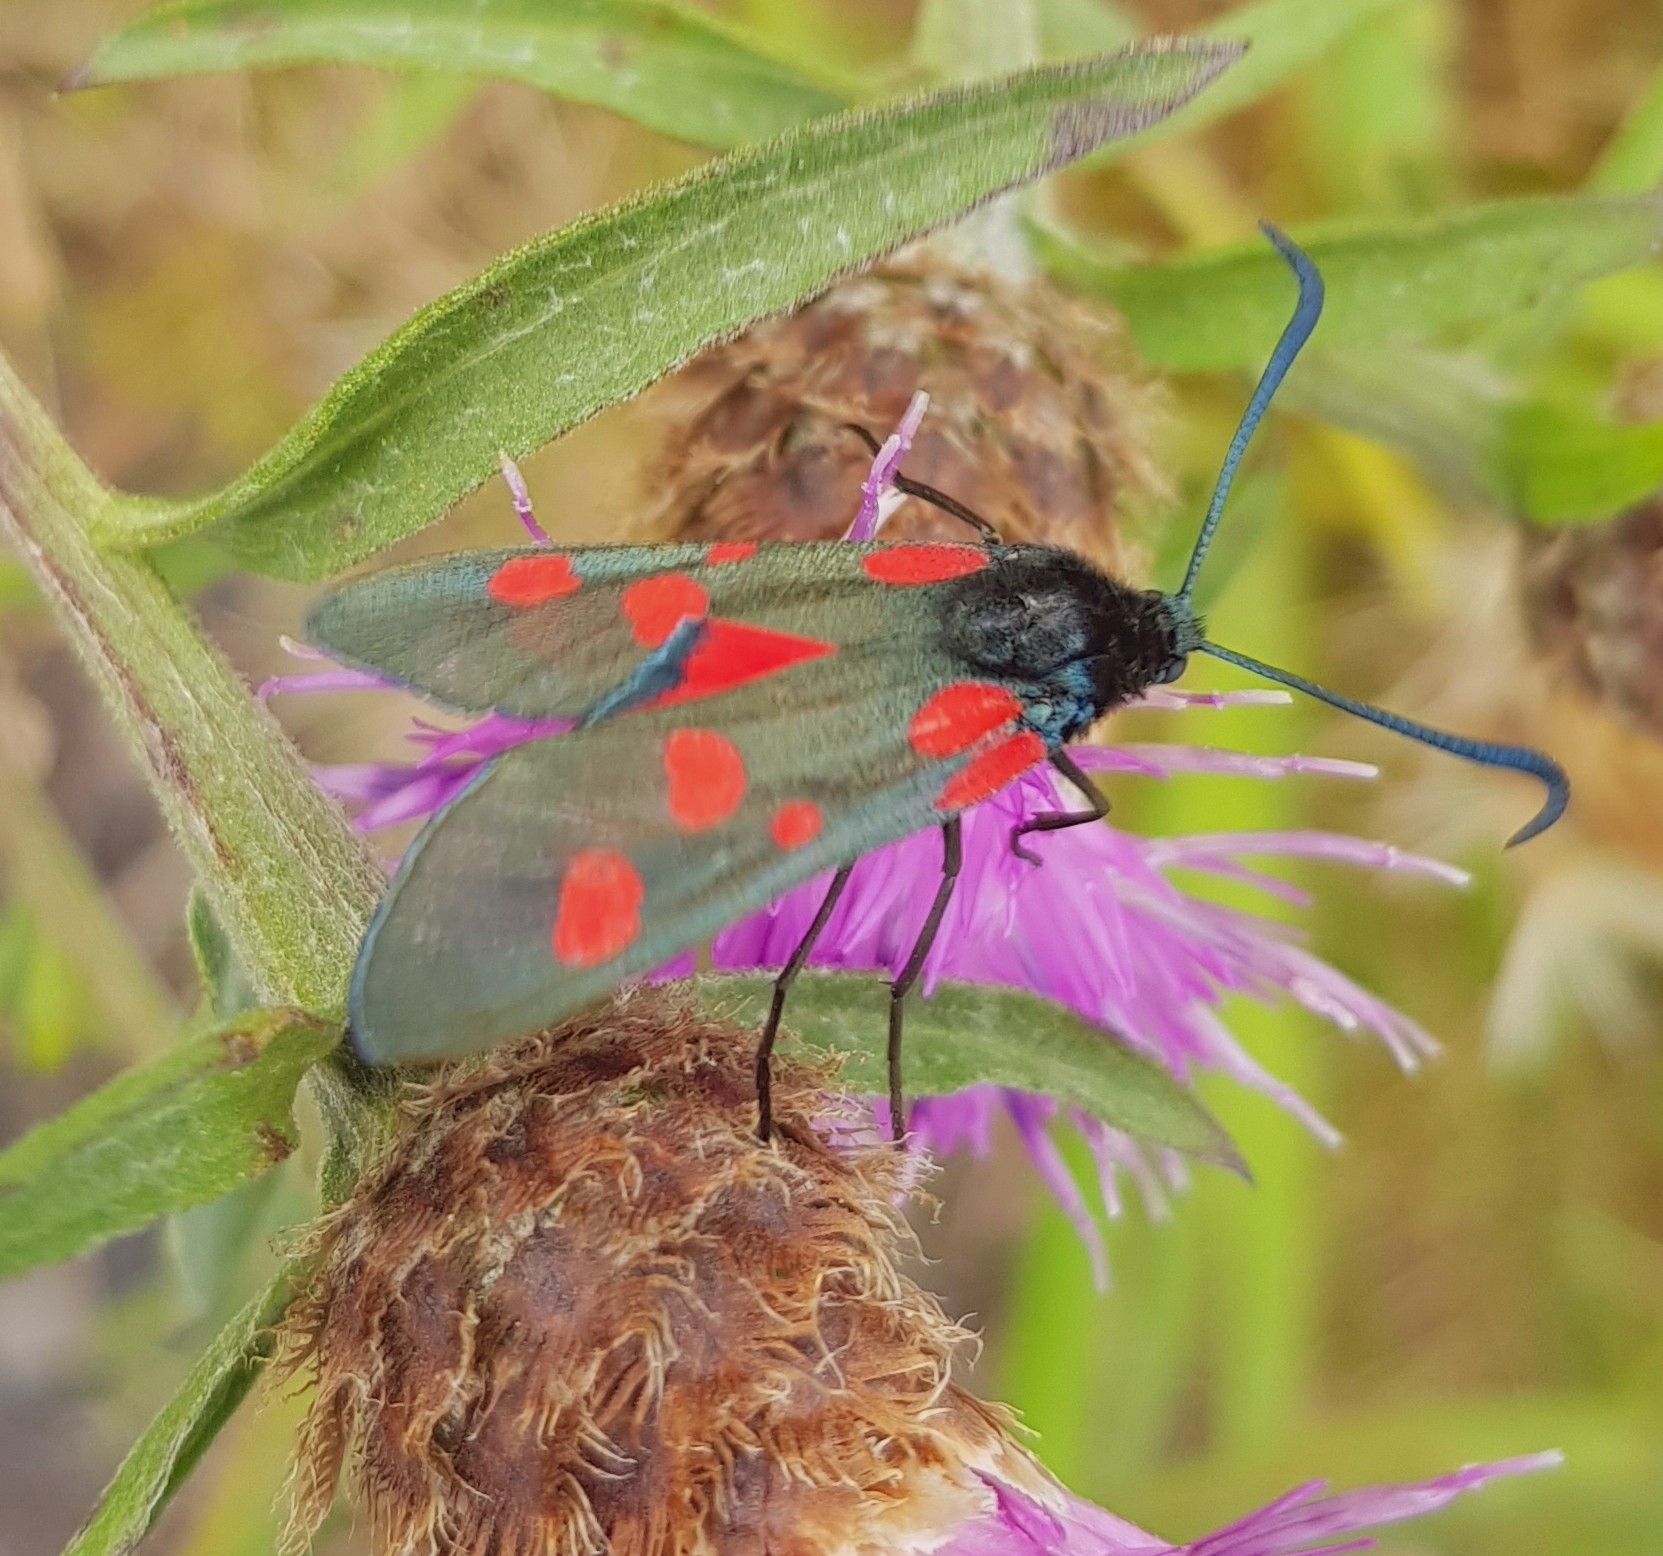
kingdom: Animalia
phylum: Arthropoda
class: Insecta
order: Lepidoptera
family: Zygaenidae
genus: Zygaena
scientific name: Zygaena lonicerae
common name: Narrow-bordered five-spot burnet
